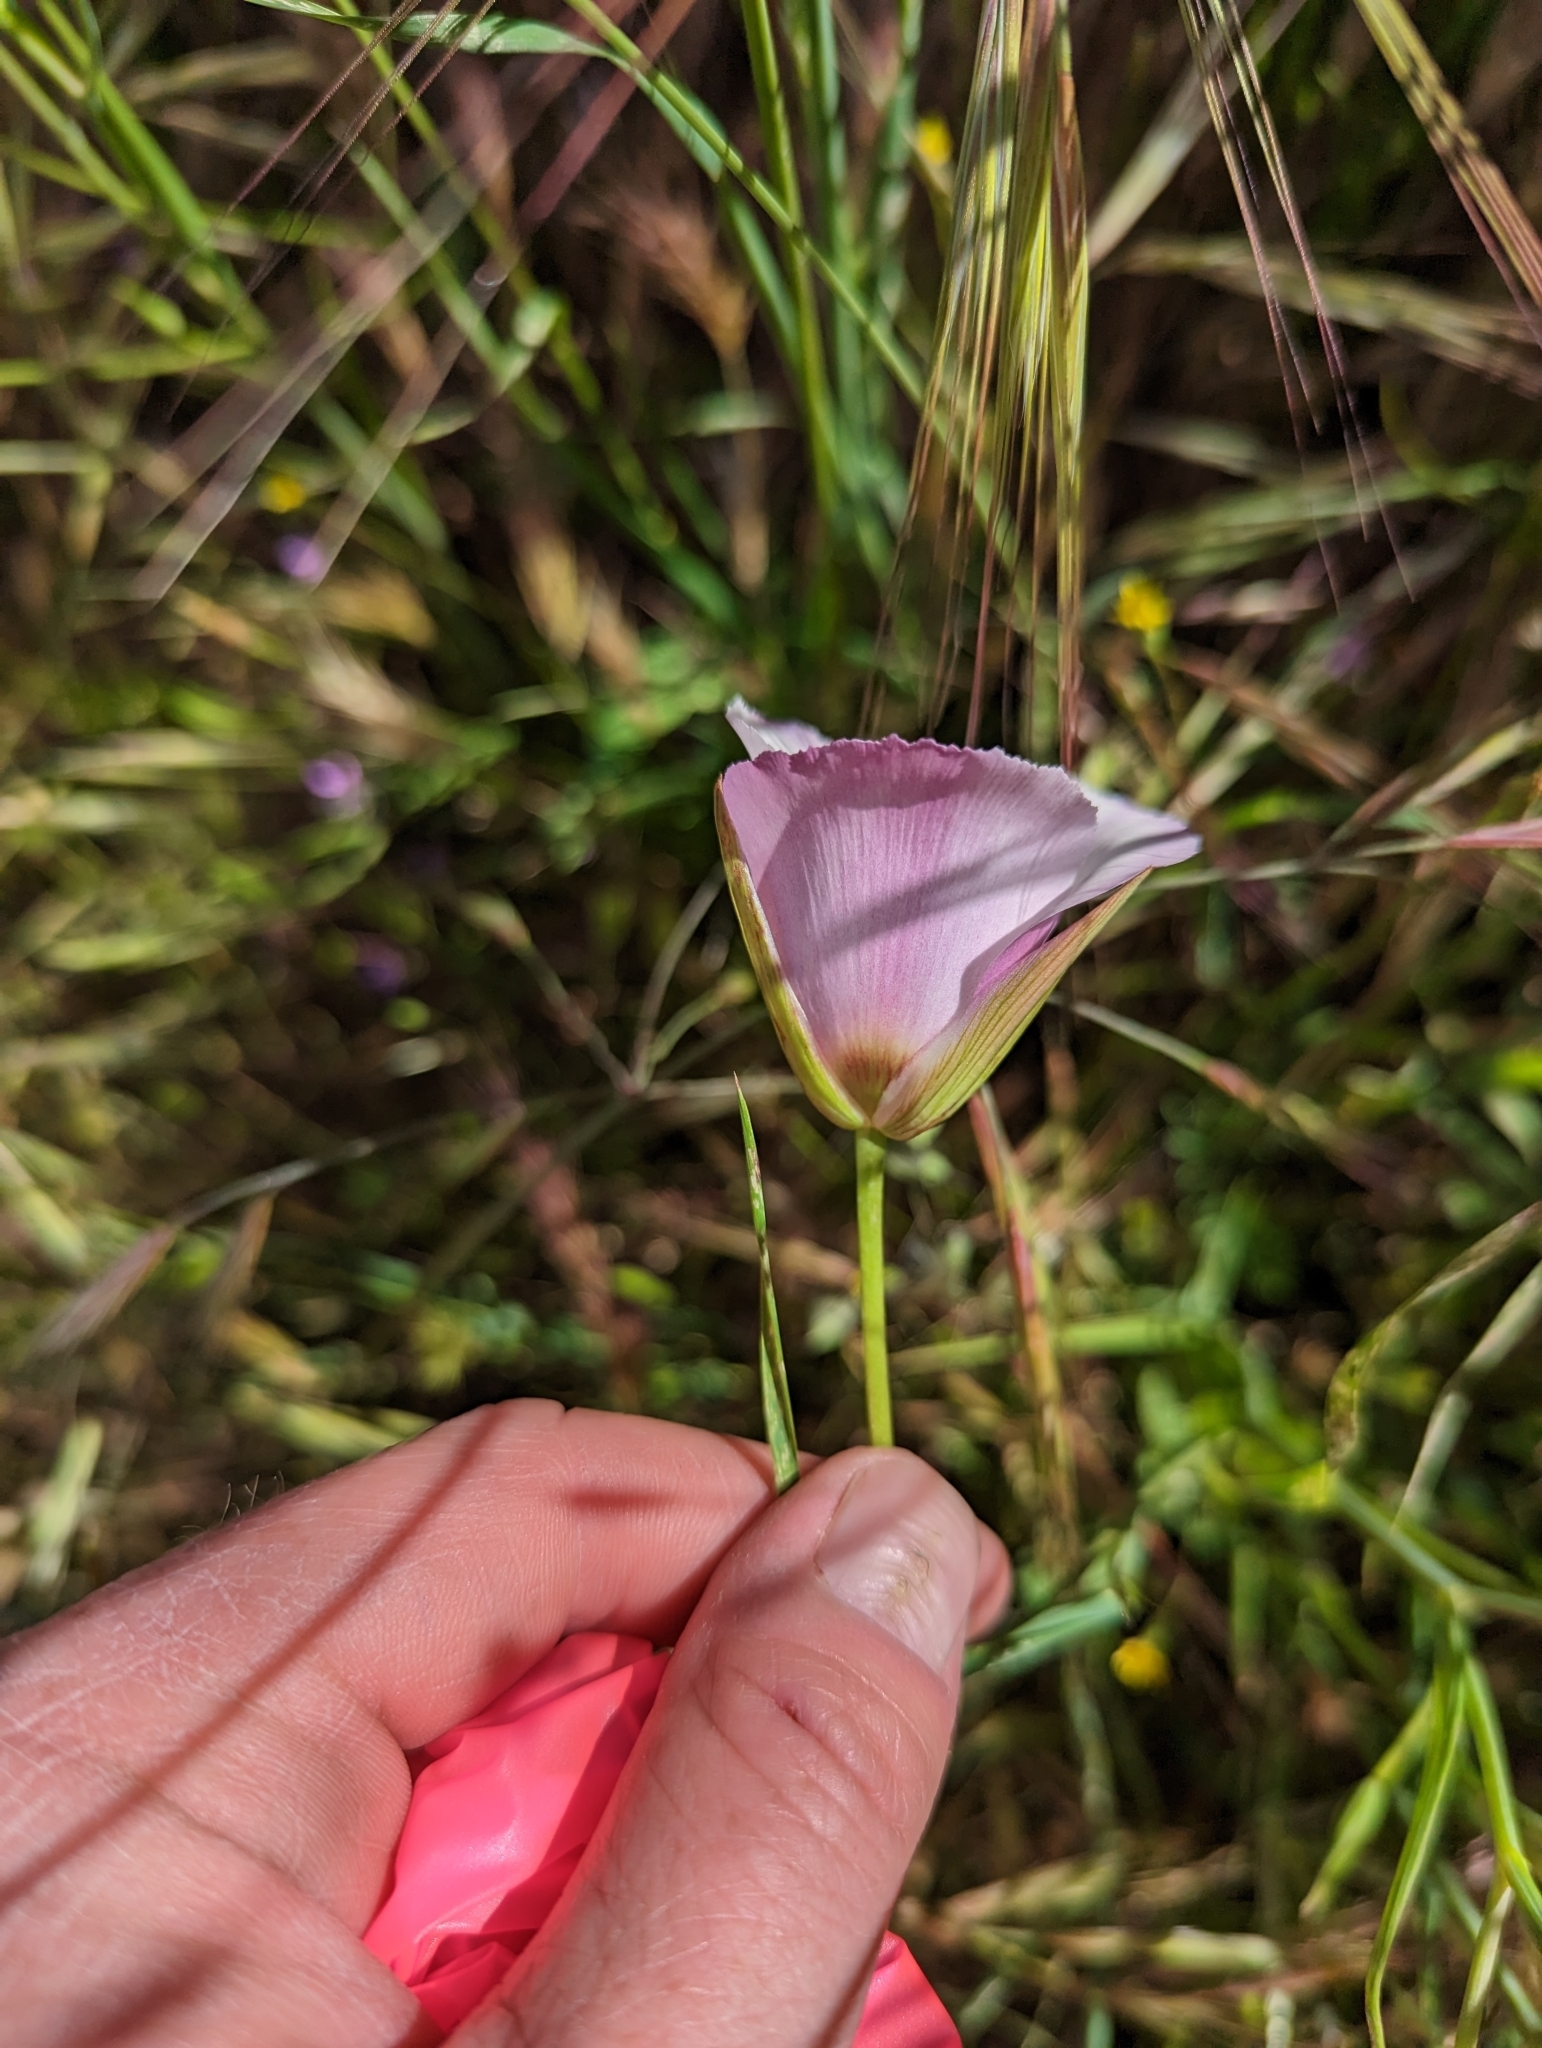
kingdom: Plantae
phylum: Tracheophyta
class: Liliopsida
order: Liliales
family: Liliaceae
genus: Calochortus
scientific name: Calochortus catalinae
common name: Catalina mariposa-lily
